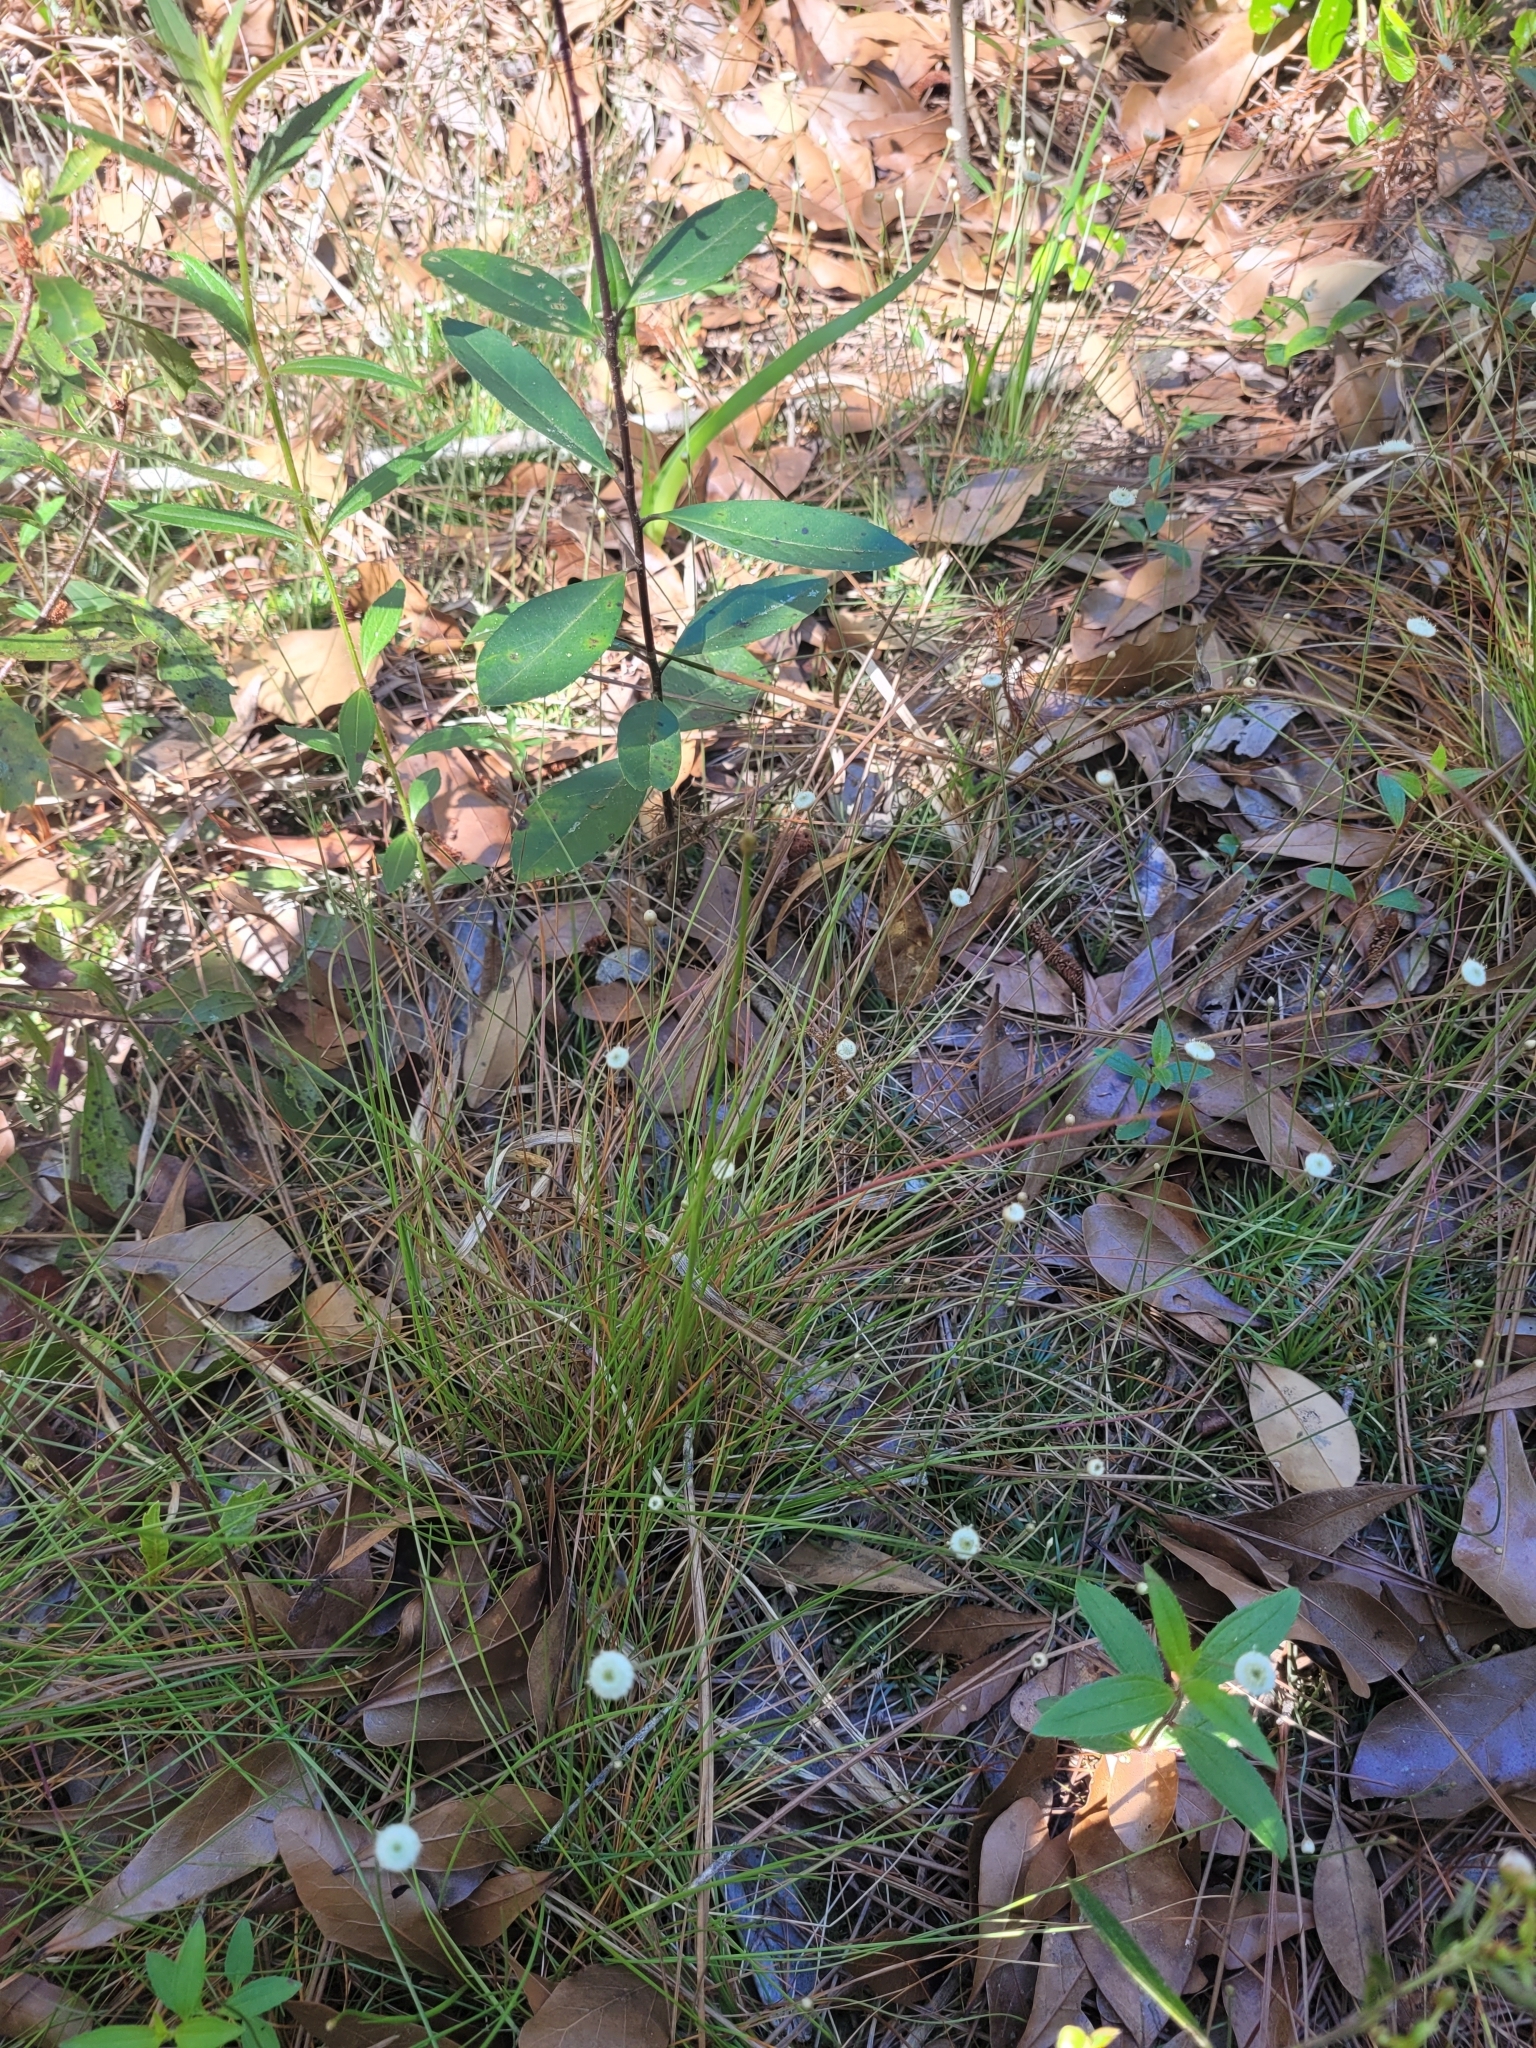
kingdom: Plantae
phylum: Tracheophyta
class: Liliopsida
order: Poales
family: Eriocaulaceae
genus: Syngonanthus
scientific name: Syngonanthus flavidulus
